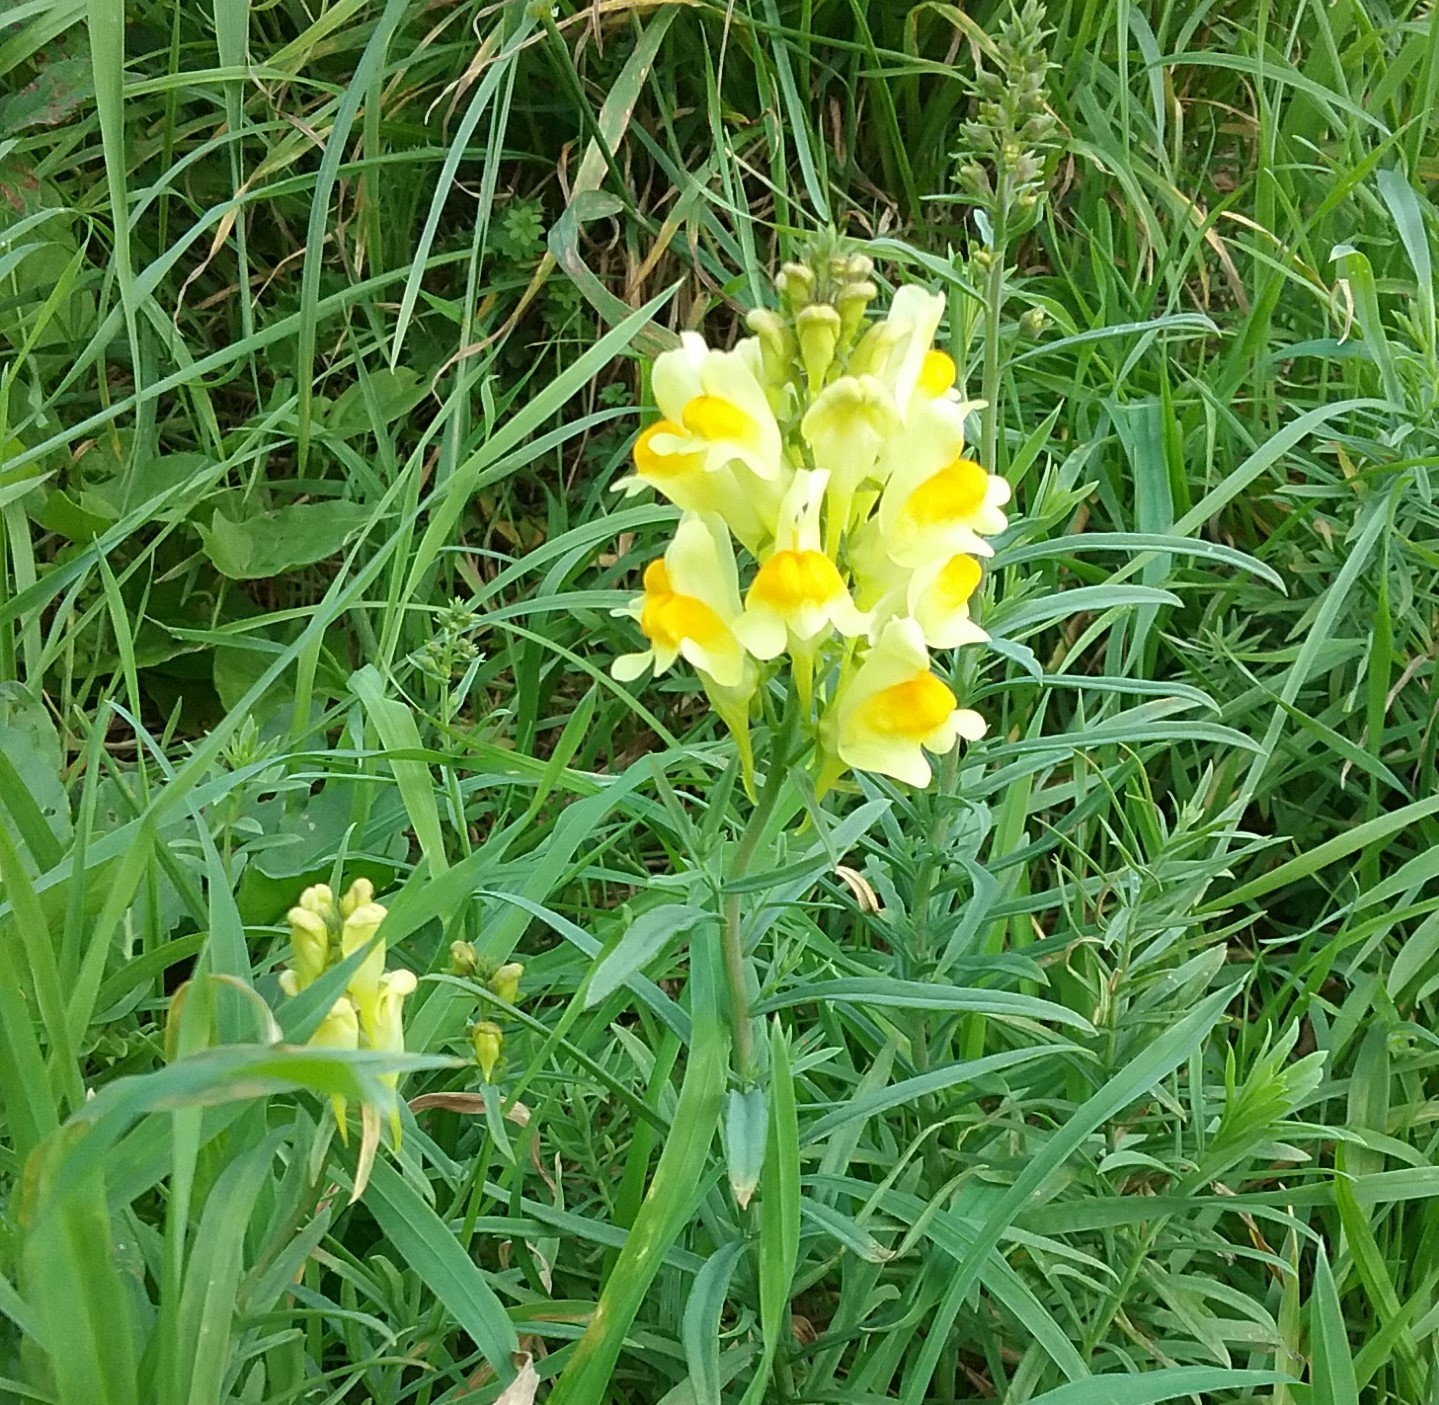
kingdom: Plantae
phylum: Tracheophyta
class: Magnoliopsida
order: Lamiales
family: Plantaginaceae
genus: Linaria
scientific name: Linaria vulgaris
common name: Butter and eggs
